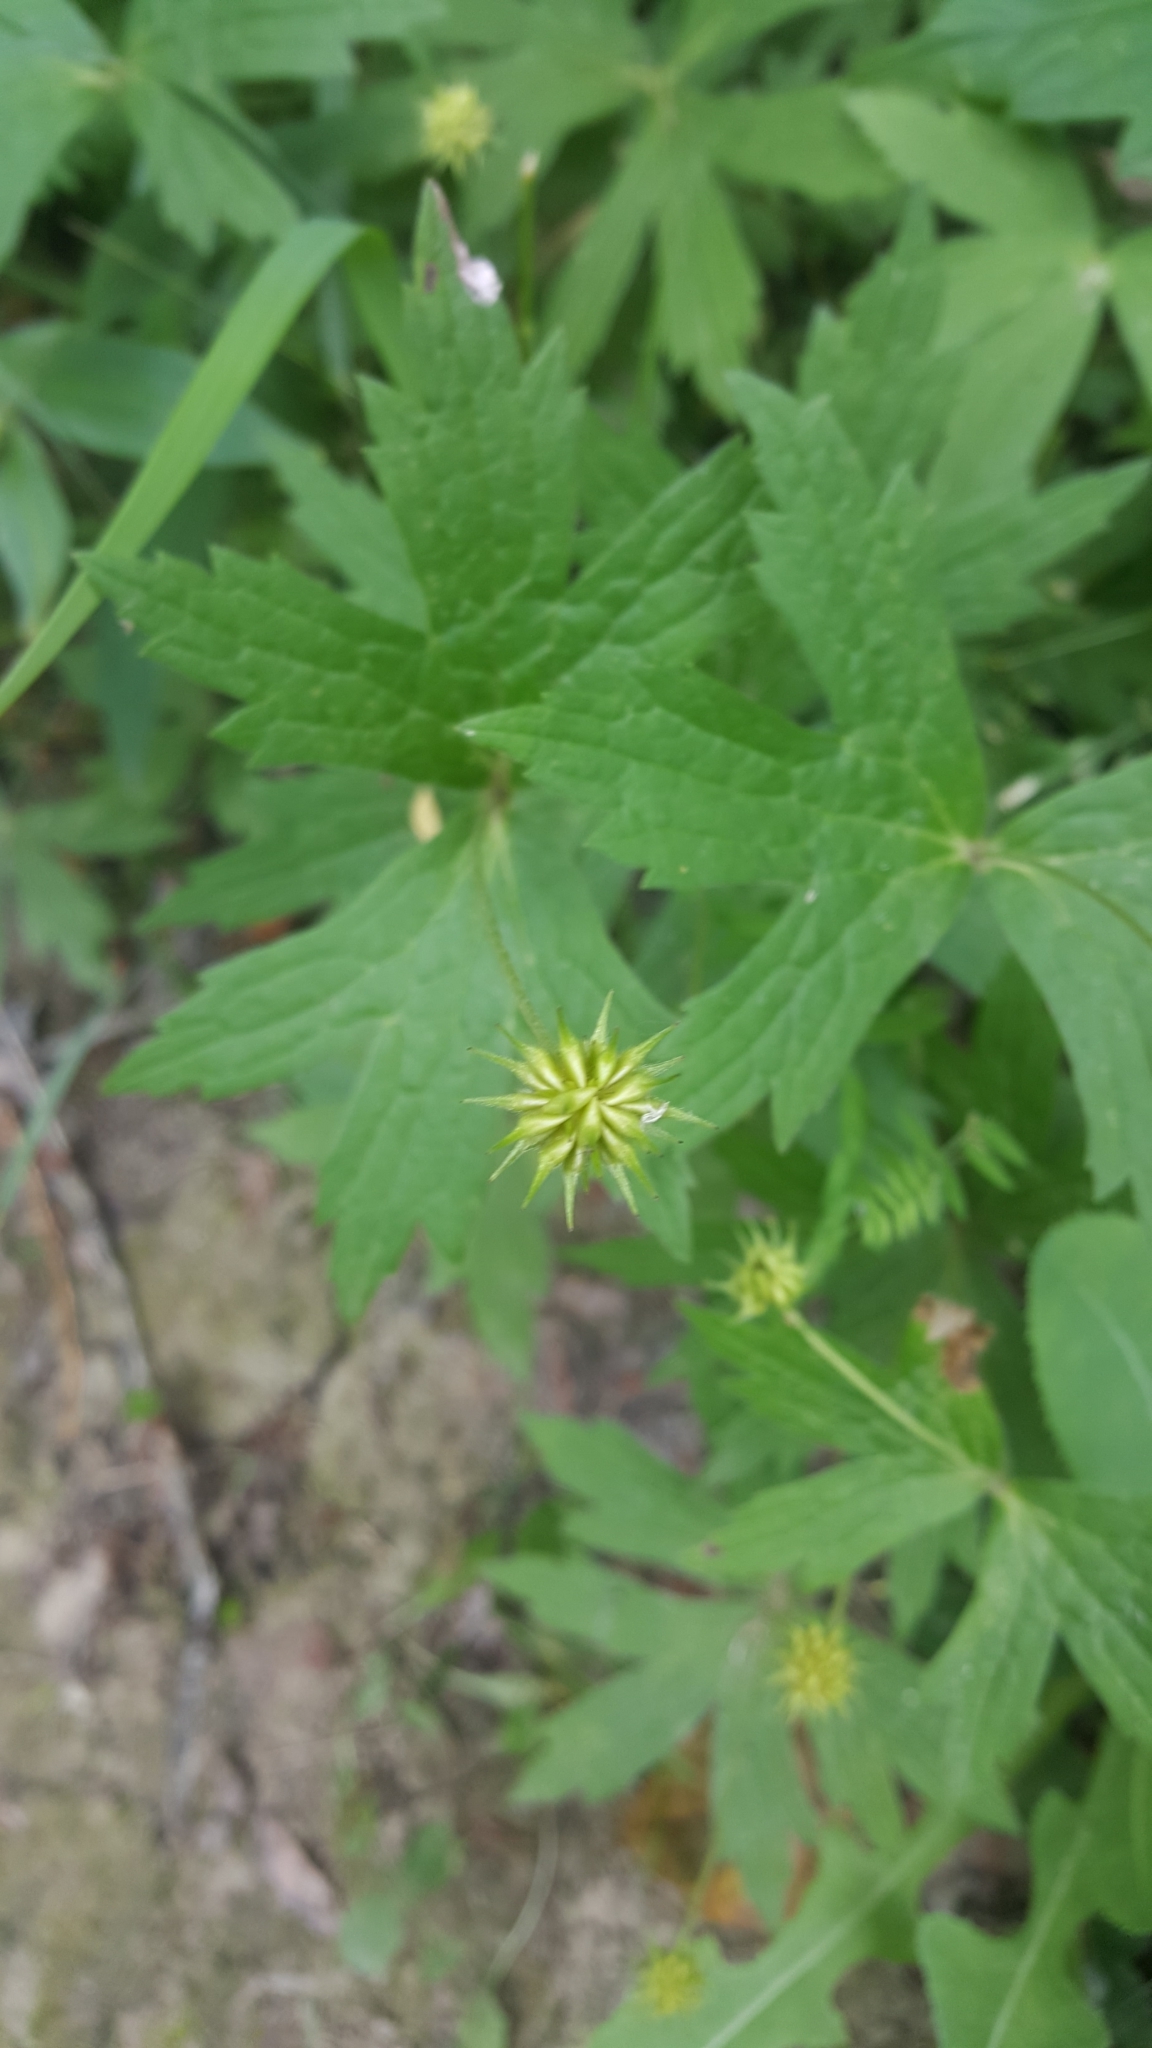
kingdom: Plantae
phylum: Tracheophyta
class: Magnoliopsida
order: Ranunculales
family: Ranunculaceae
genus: Anemonastrum
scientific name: Anemonastrum canadense
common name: Canada anemone
